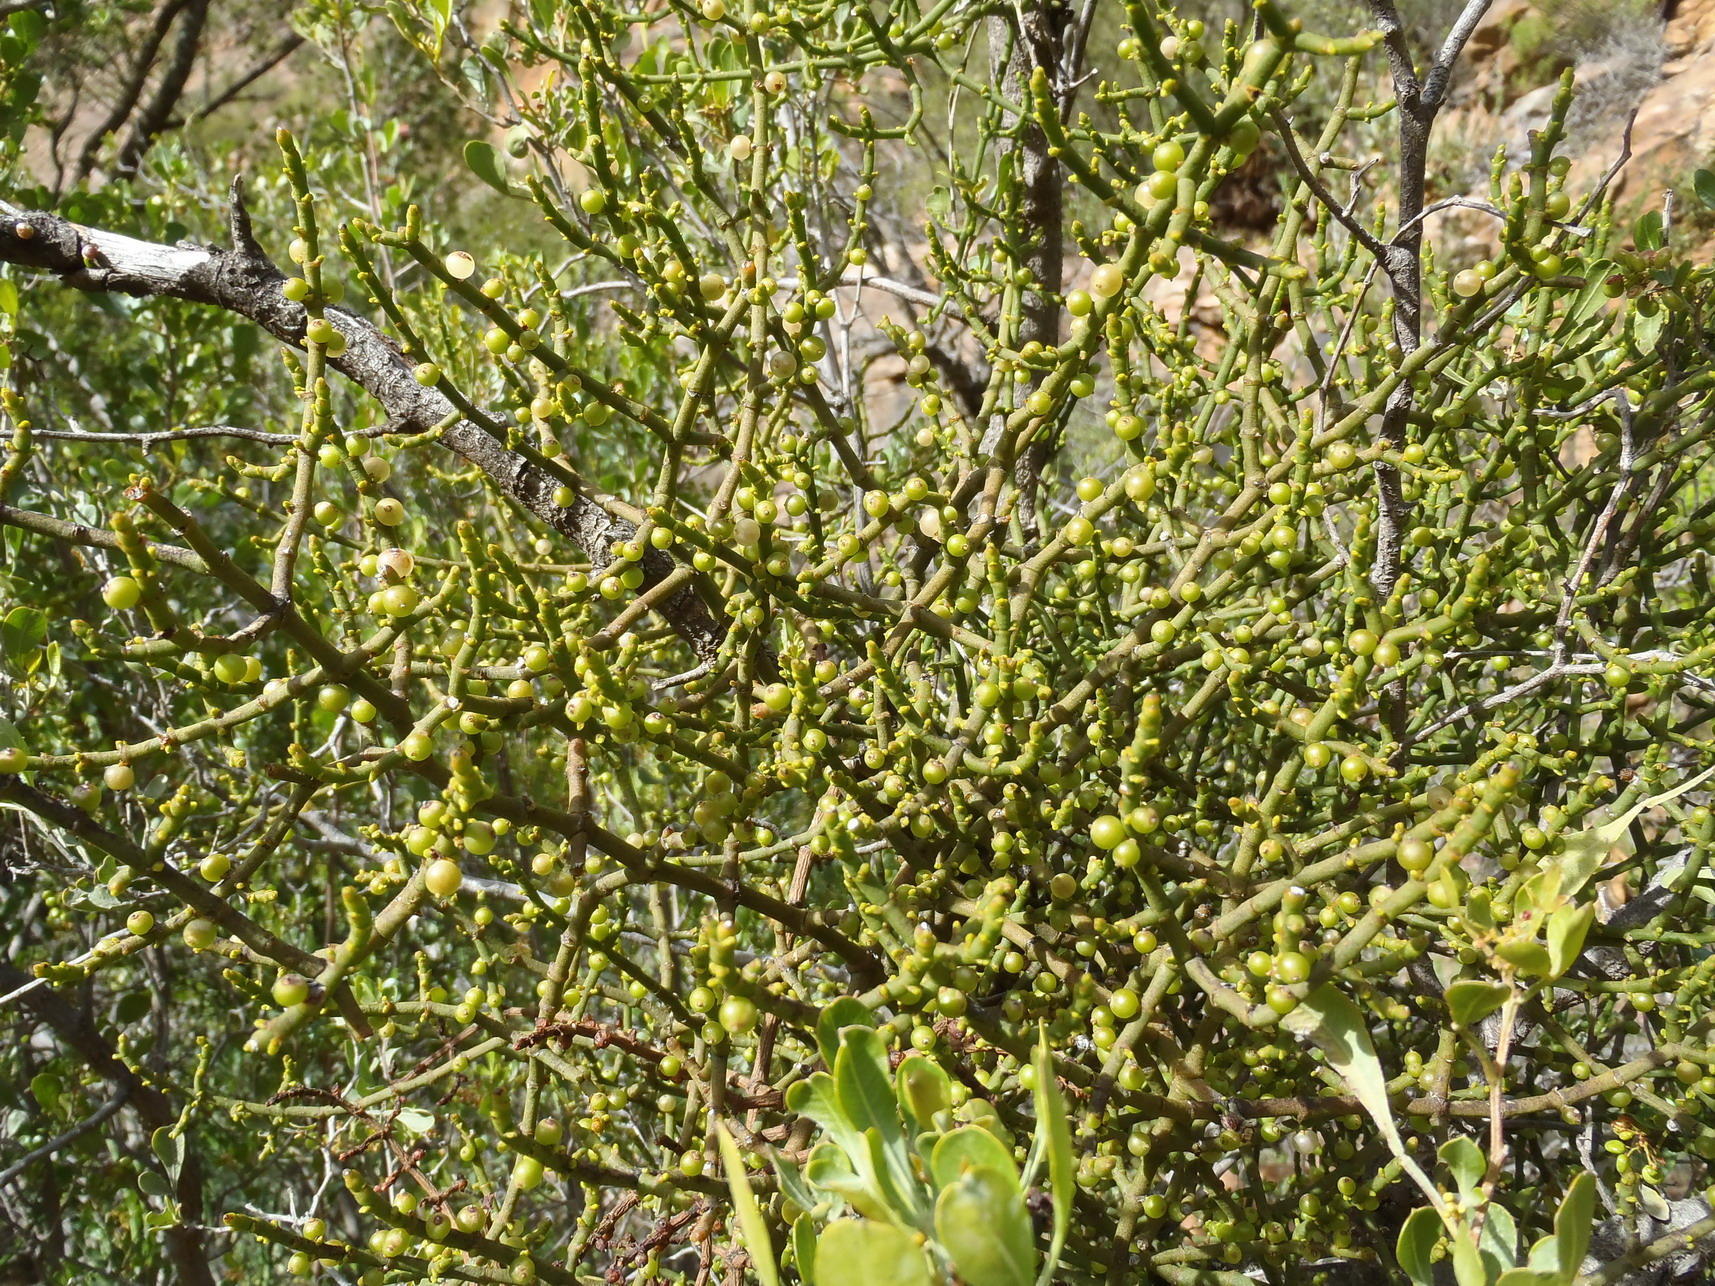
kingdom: Plantae
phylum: Tracheophyta
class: Magnoliopsida
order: Santalales
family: Viscaceae
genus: Viscum
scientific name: Viscum hoolei
